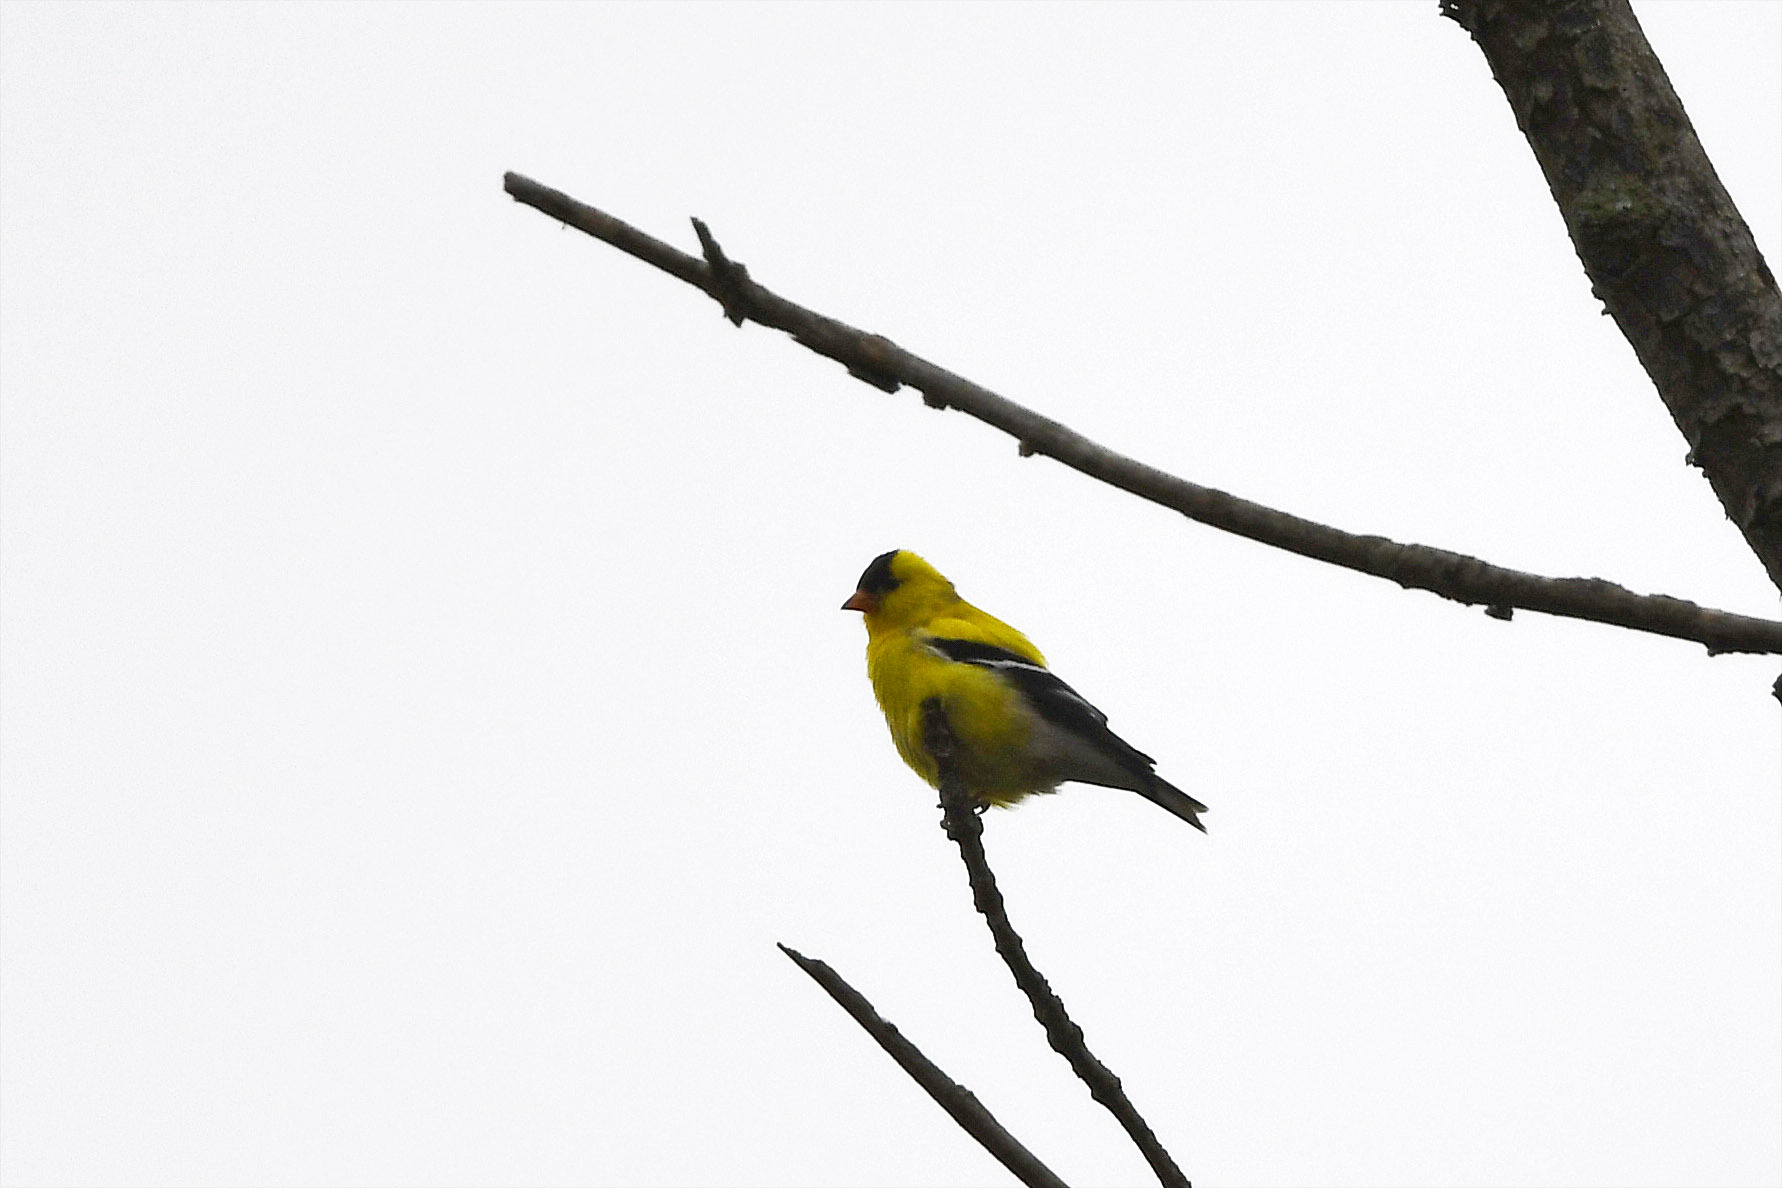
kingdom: Animalia
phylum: Chordata
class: Aves
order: Passeriformes
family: Fringillidae
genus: Spinus
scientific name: Spinus tristis
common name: American goldfinch
